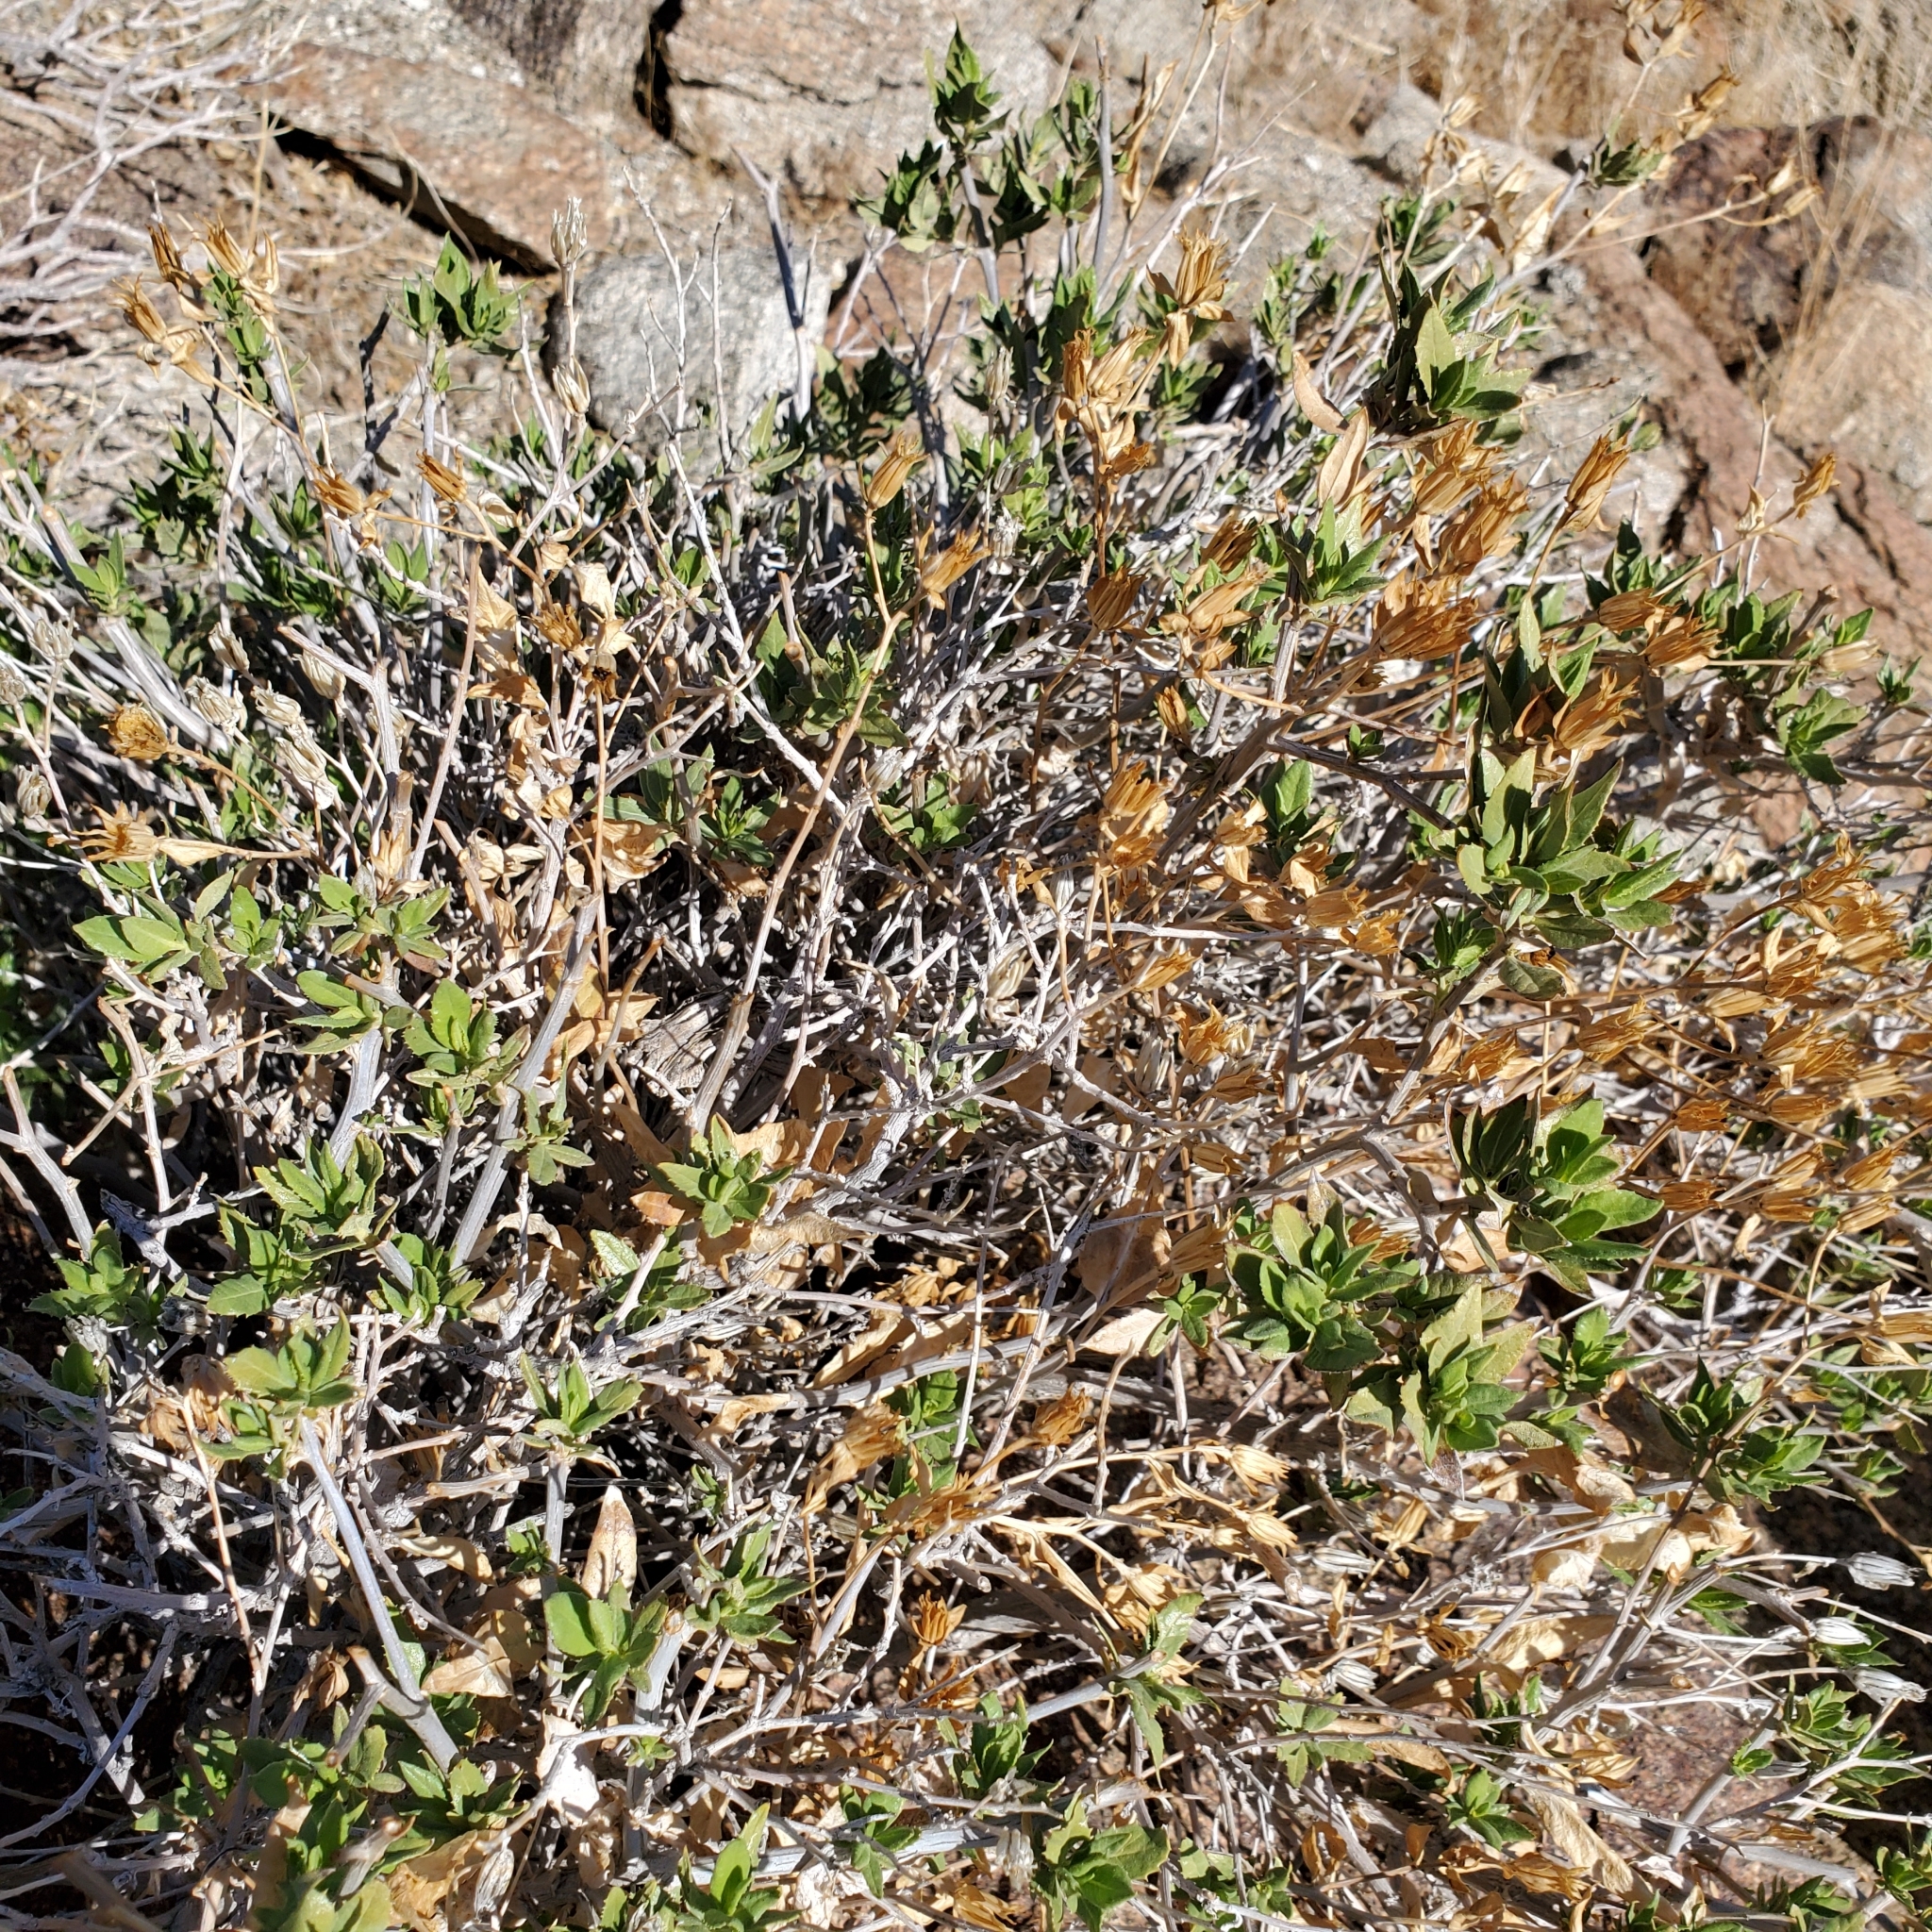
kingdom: Plantae
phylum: Tracheophyta
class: Magnoliopsida
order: Asterales
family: Asteraceae
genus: Trixis
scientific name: Trixis californica
